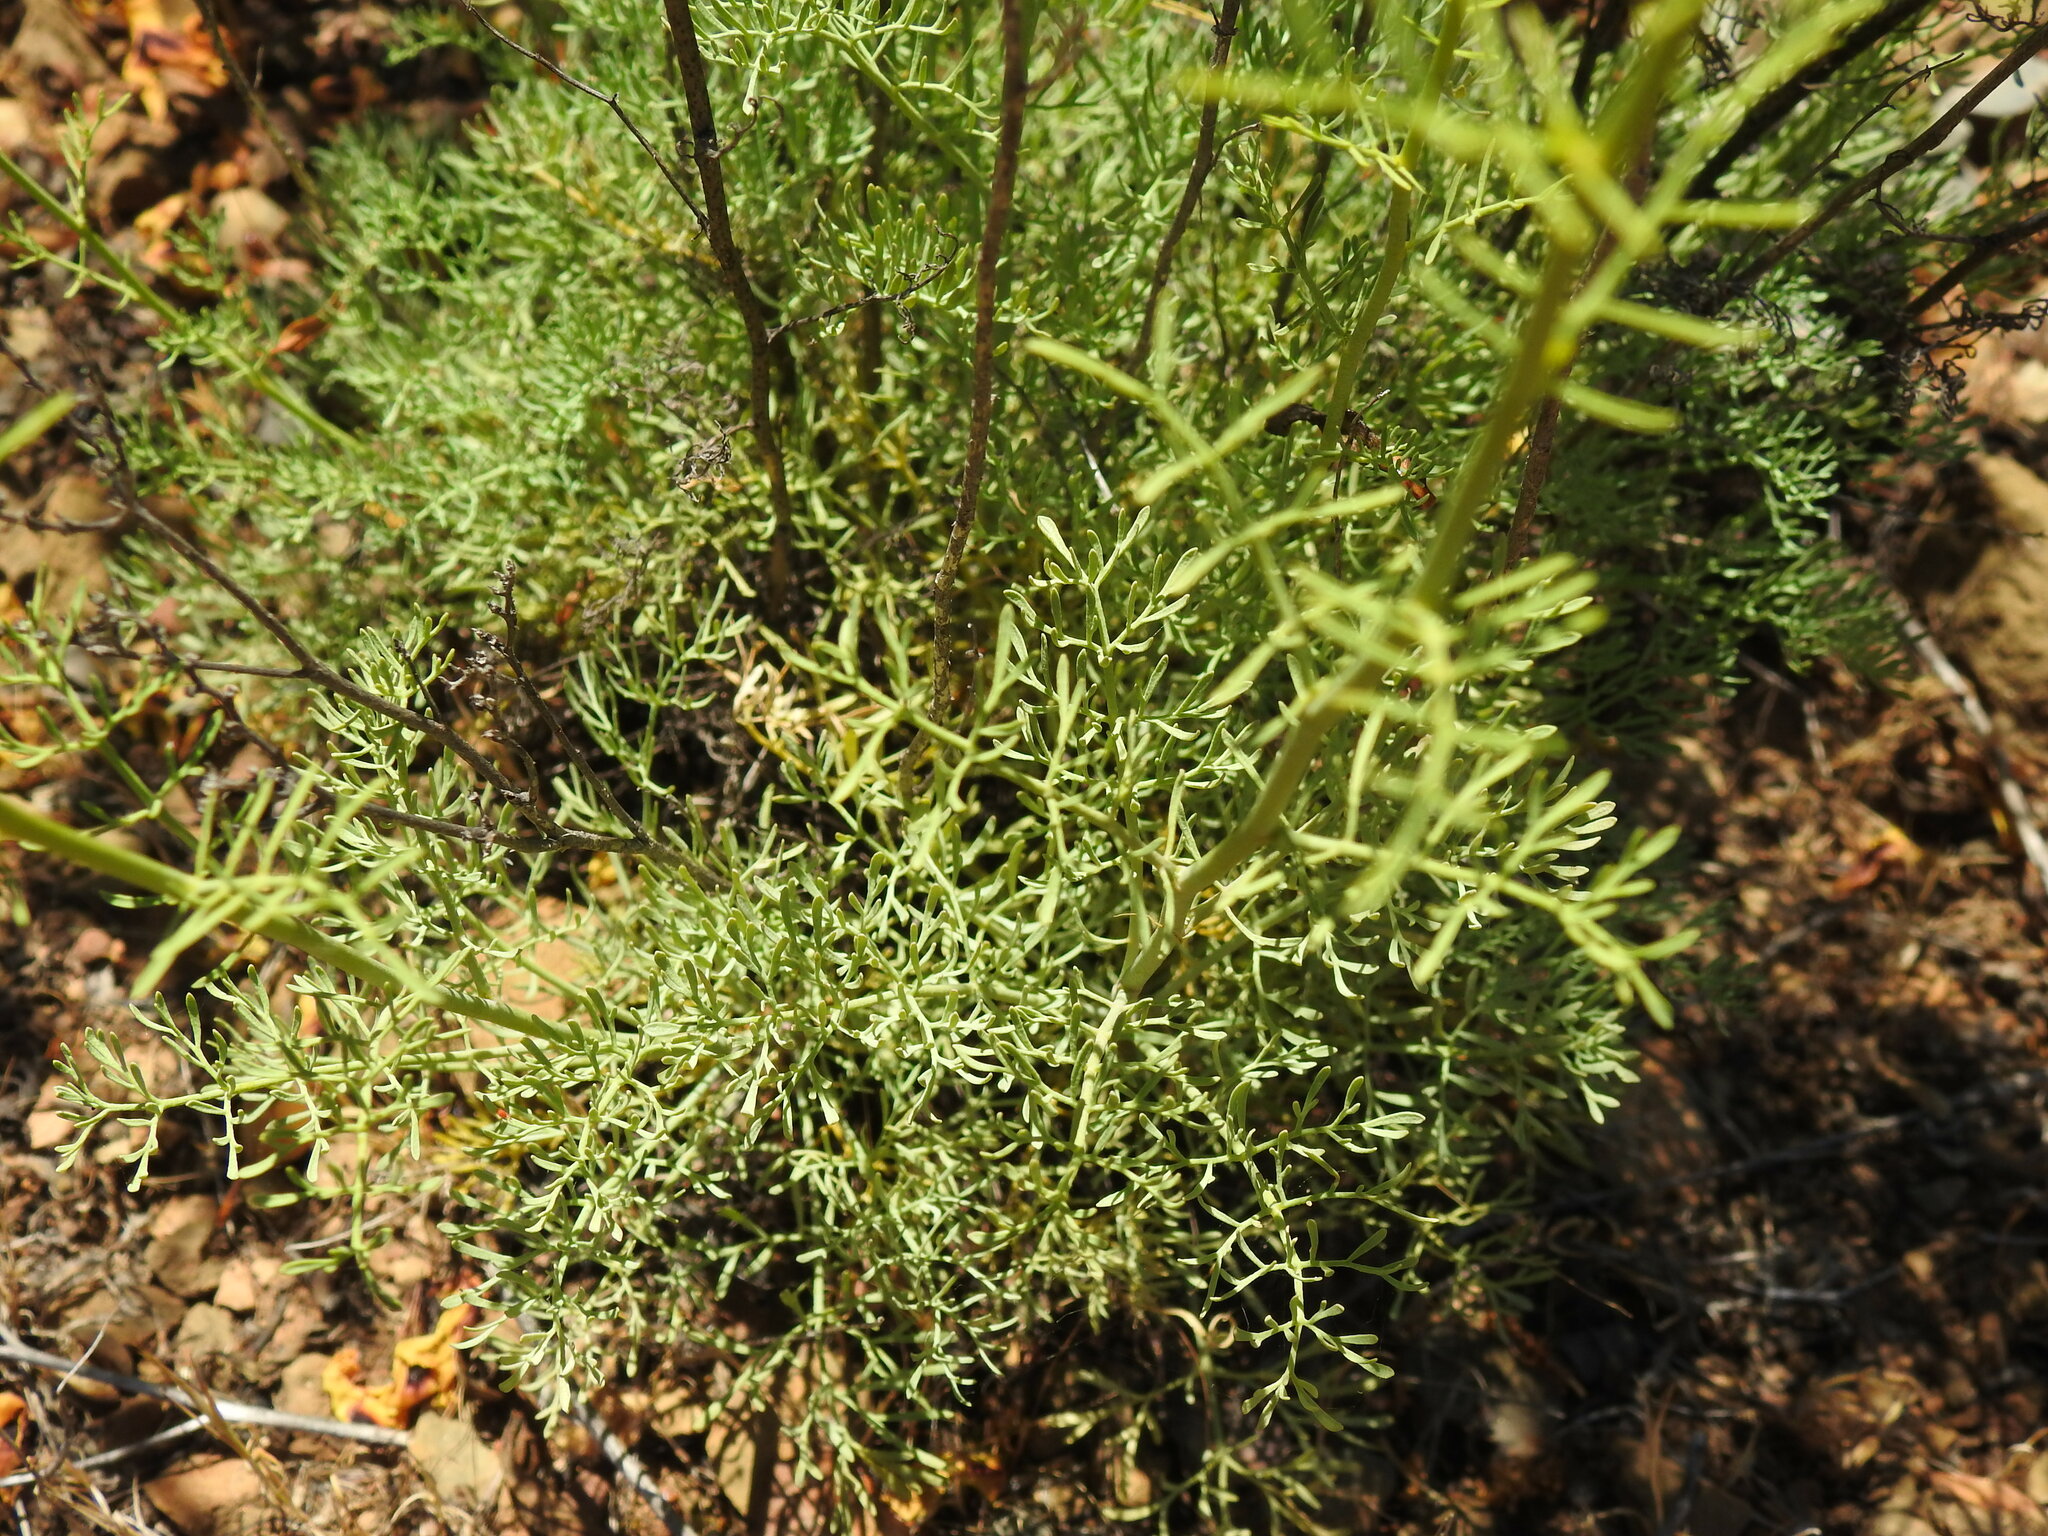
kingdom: Plantae
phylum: Tracheophyta
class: Magnoliopsida
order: Sapindales
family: Rutaceae
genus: Ruta
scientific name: Ruta montana
